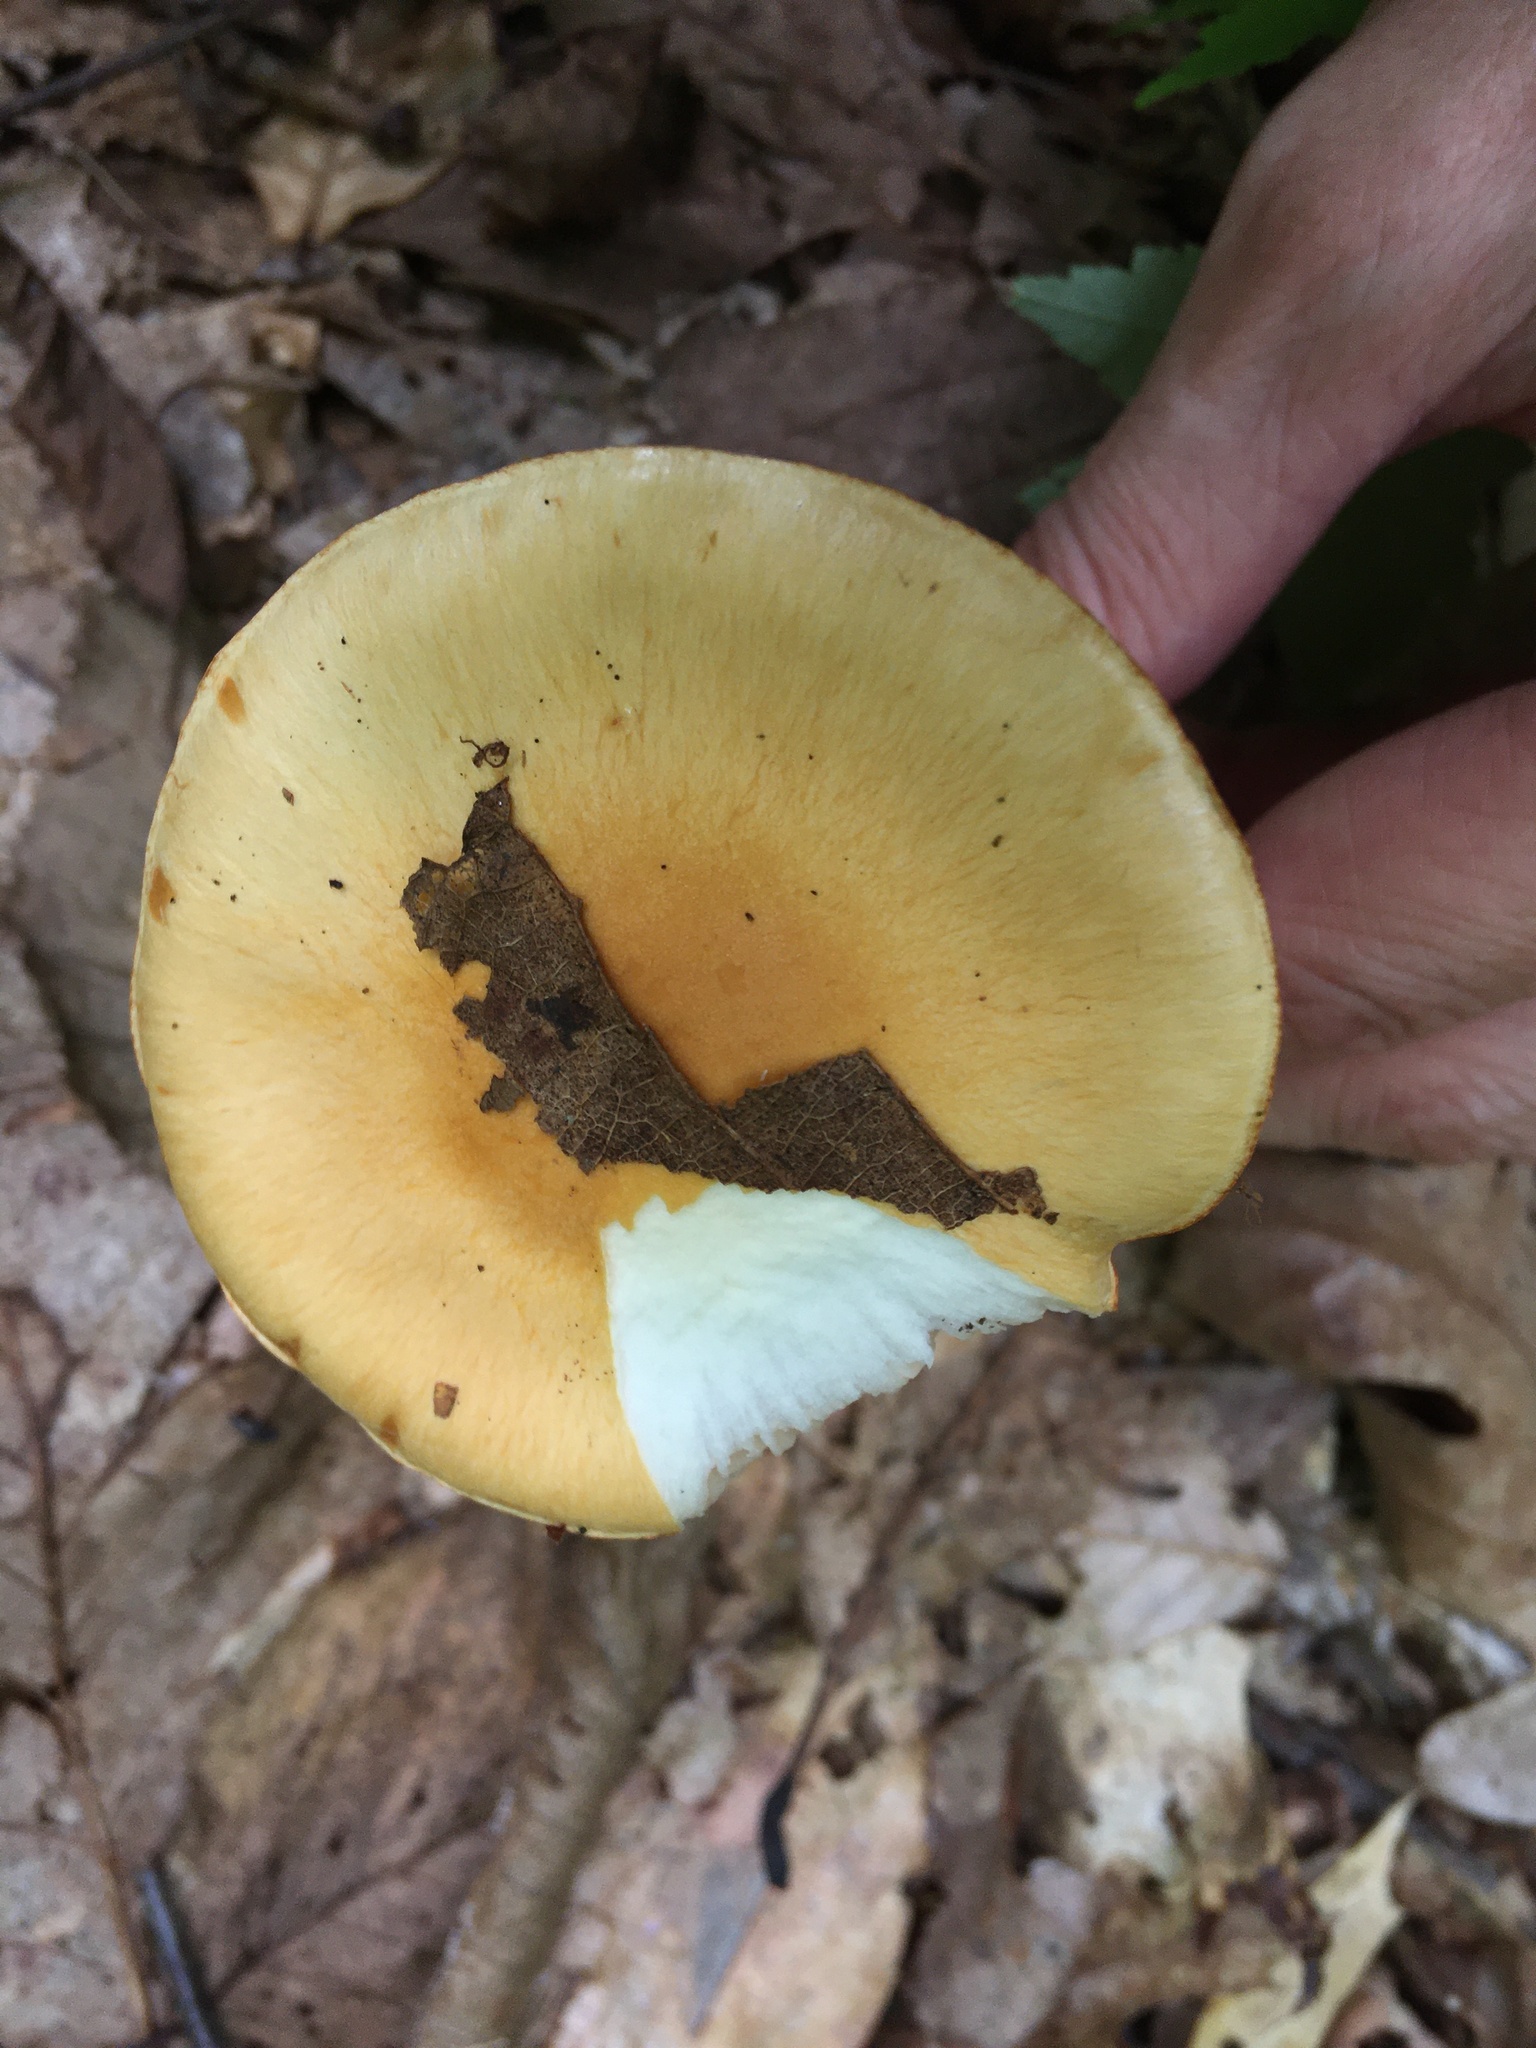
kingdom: Fungi
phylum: Basidiomycota
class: Agaricomycetes
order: Agaricales
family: Cortinariaceae
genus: Cortinarius
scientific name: Cortinarius emollitus
